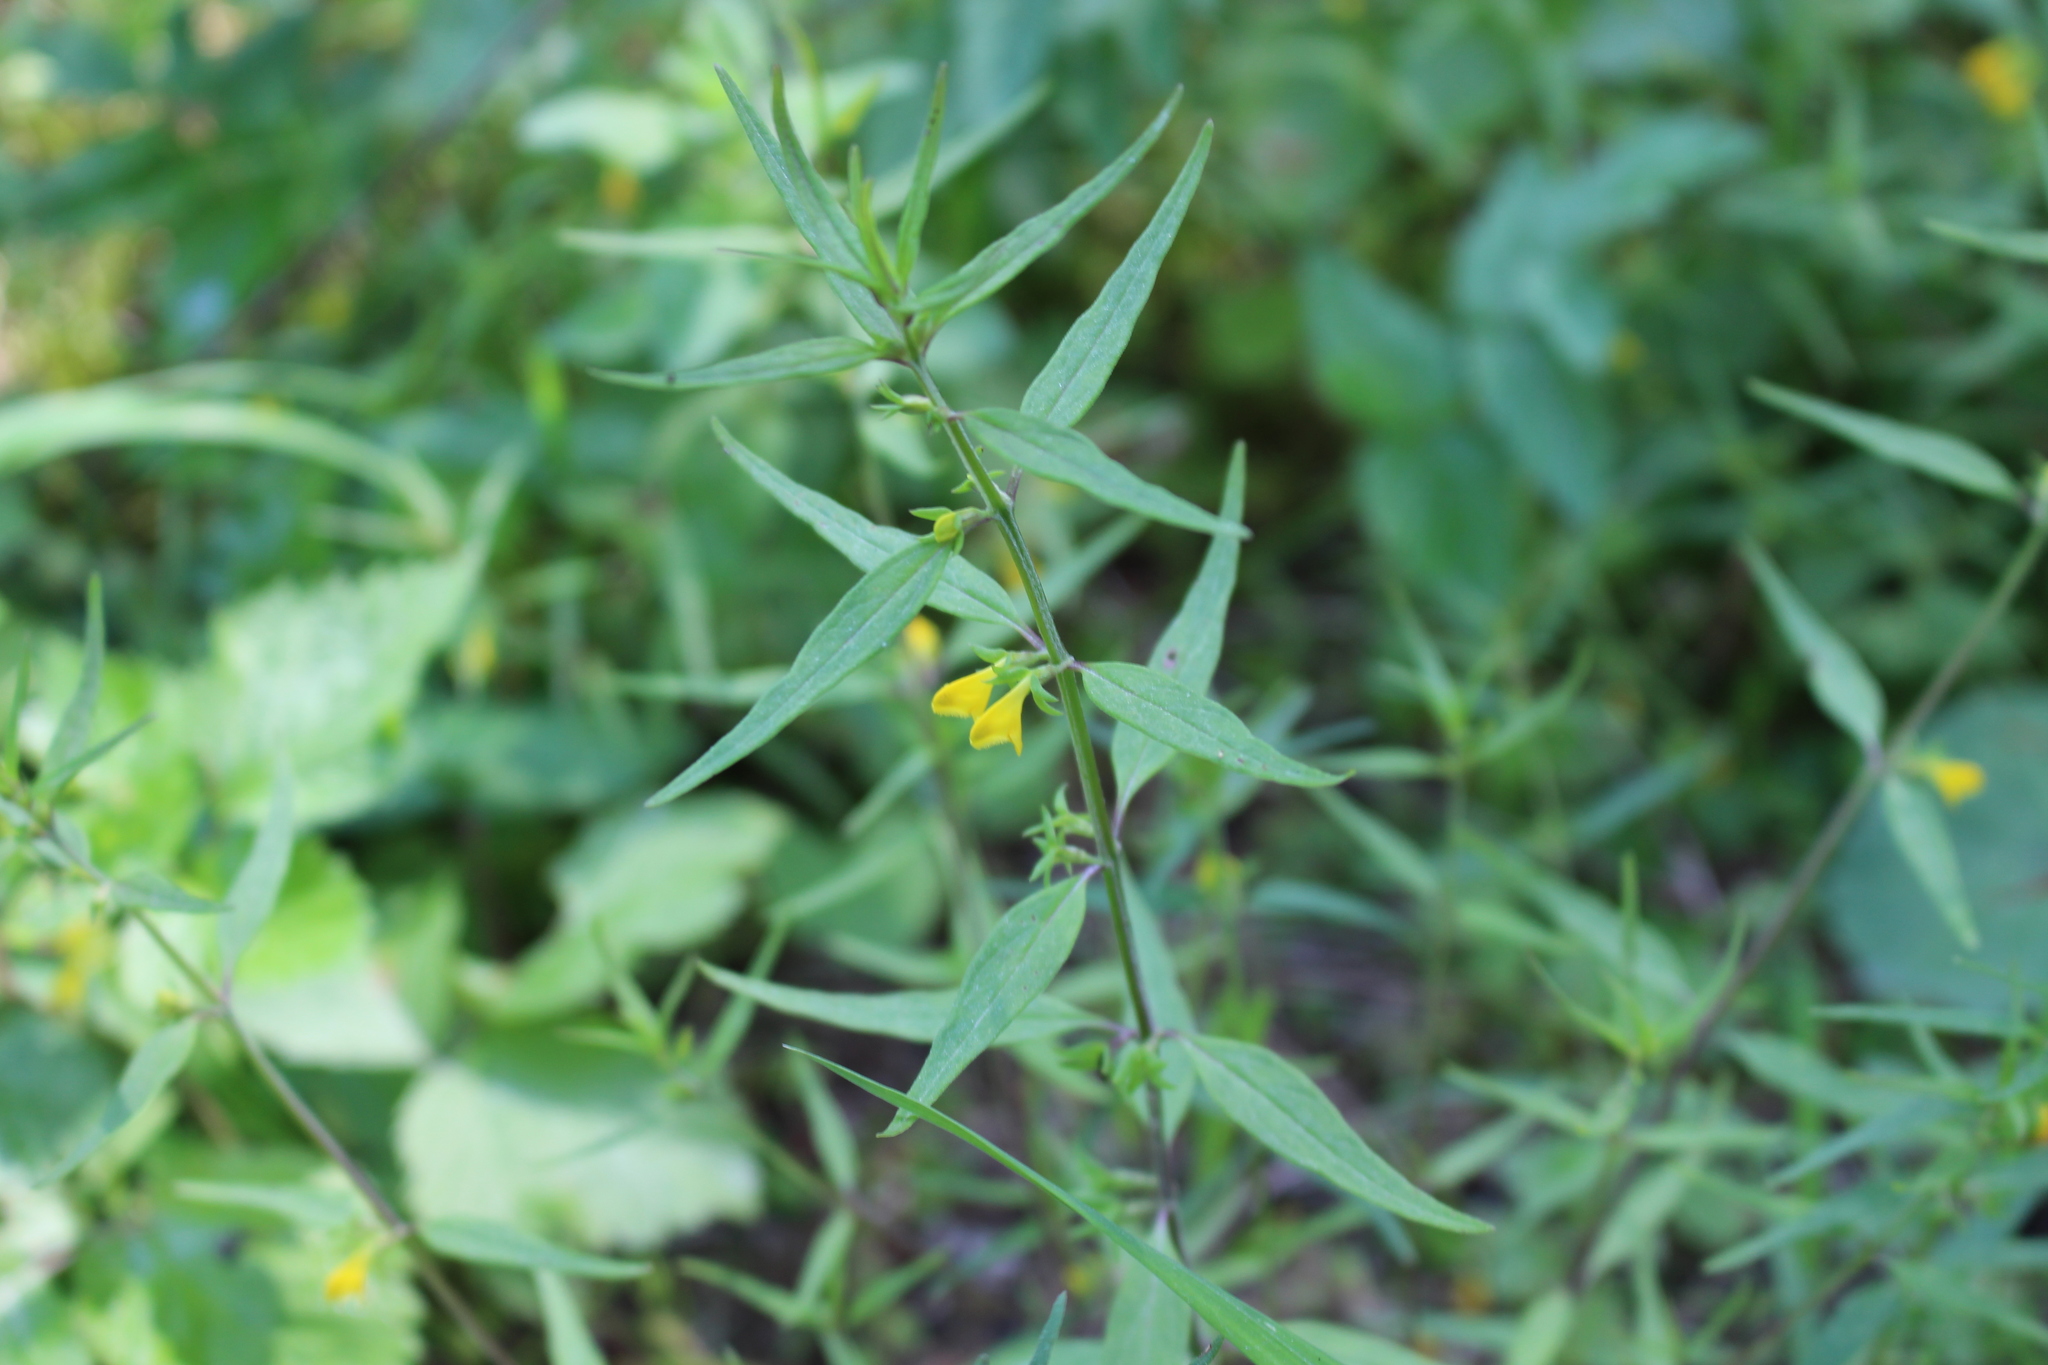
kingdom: Plantae
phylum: Tracheophyta
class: Magnoliopsida
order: Lamiales
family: Orobanchaceae
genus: Melampyrum
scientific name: Melampyrum sylvaticum
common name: Small cow-wheat
